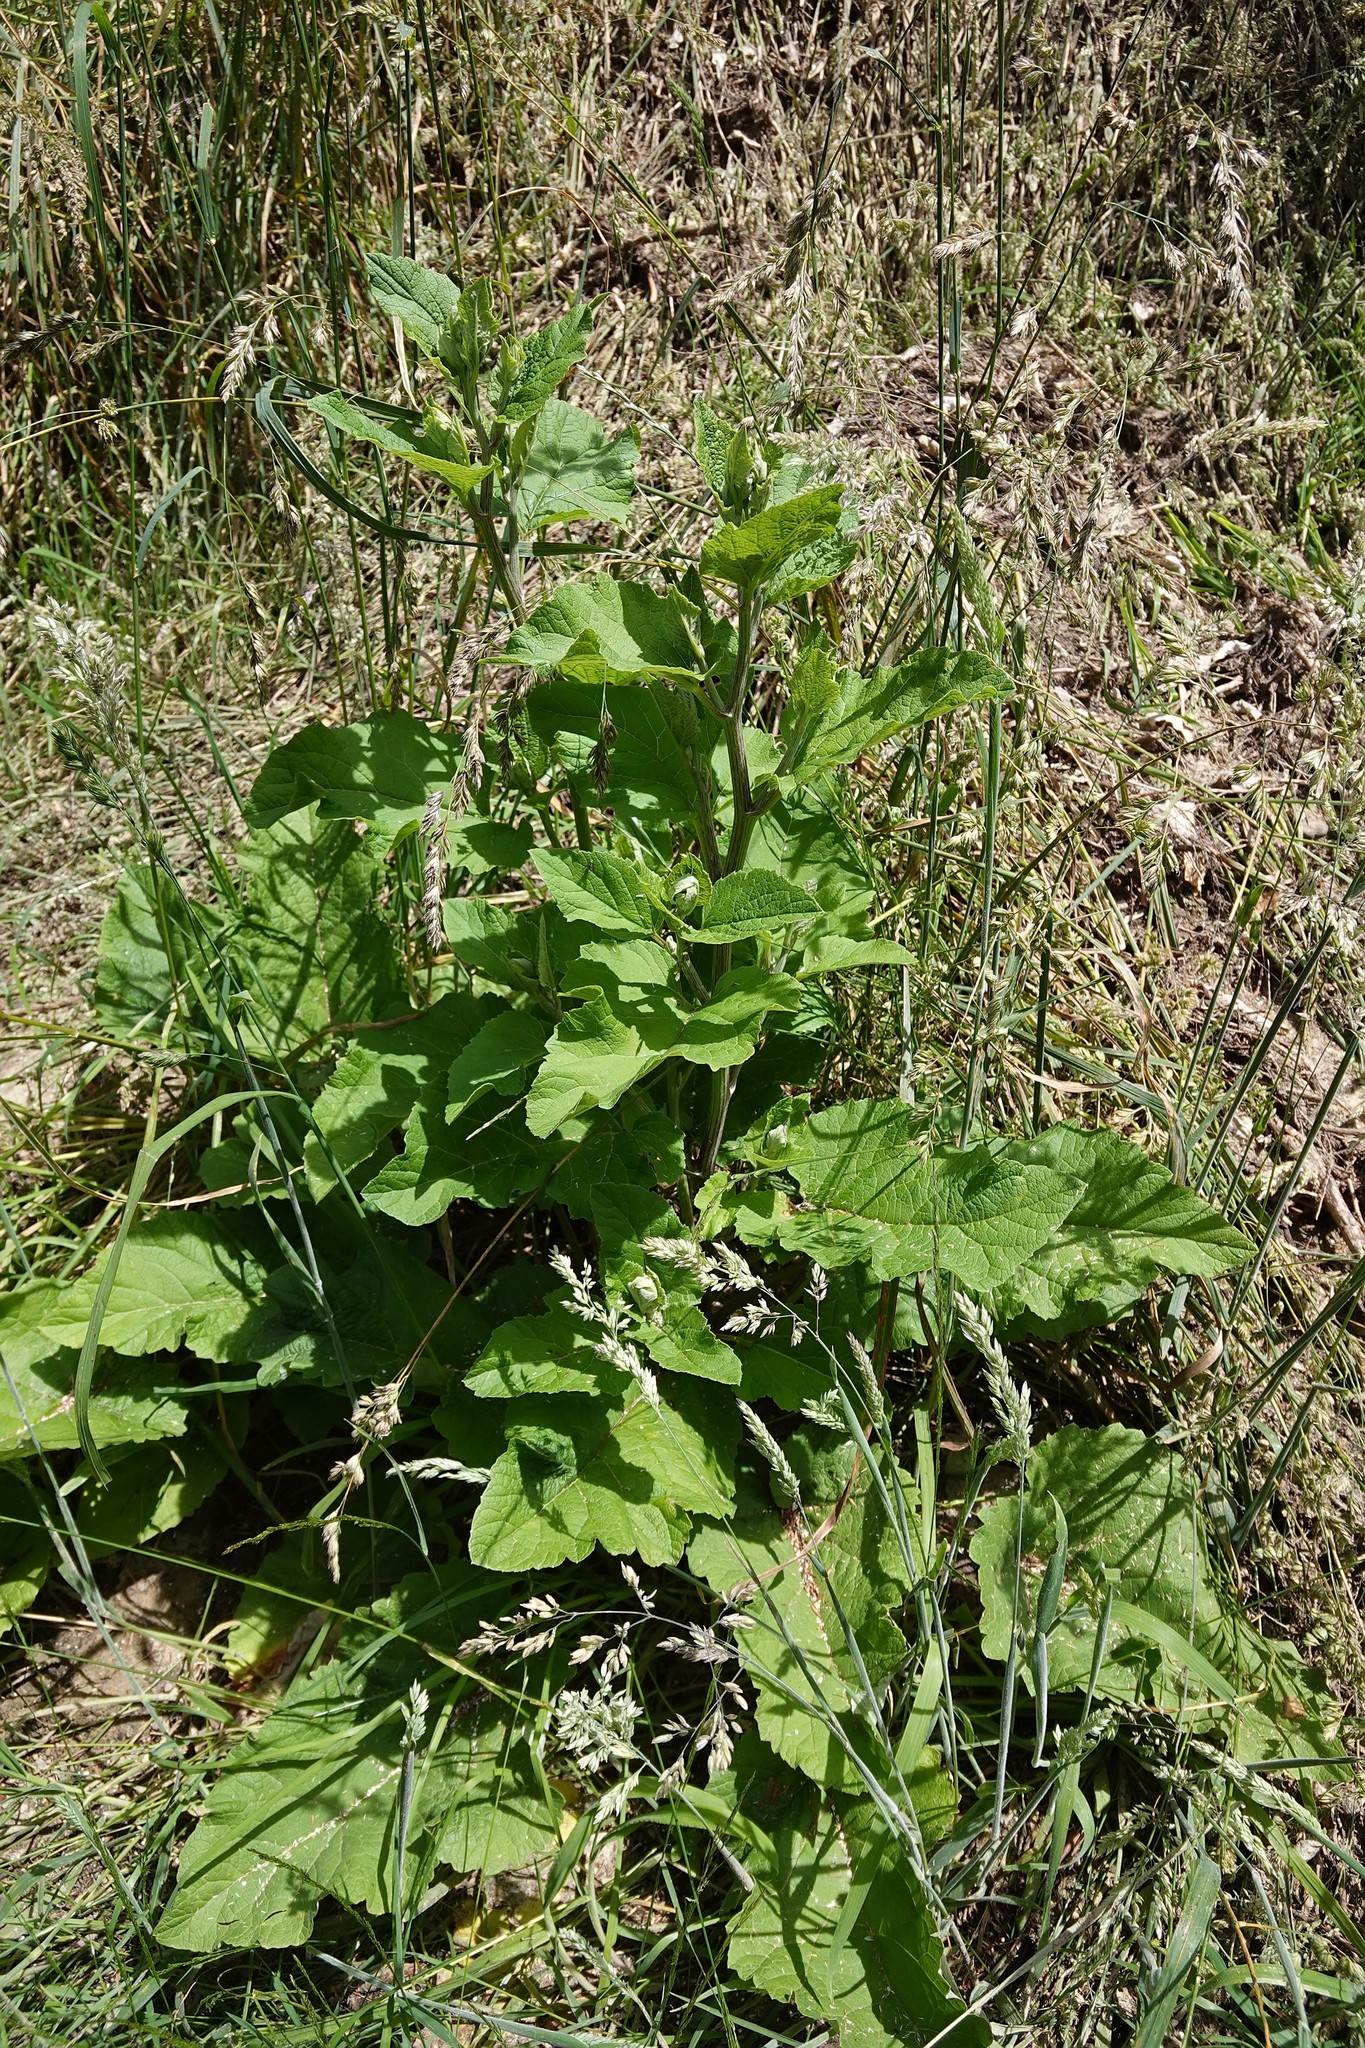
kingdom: Plantae
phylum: Tracheophyta
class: Magnoliopsida
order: Asterales
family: Asteraceae
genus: Arctium
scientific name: Arctium minus
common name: Lesser burdock
